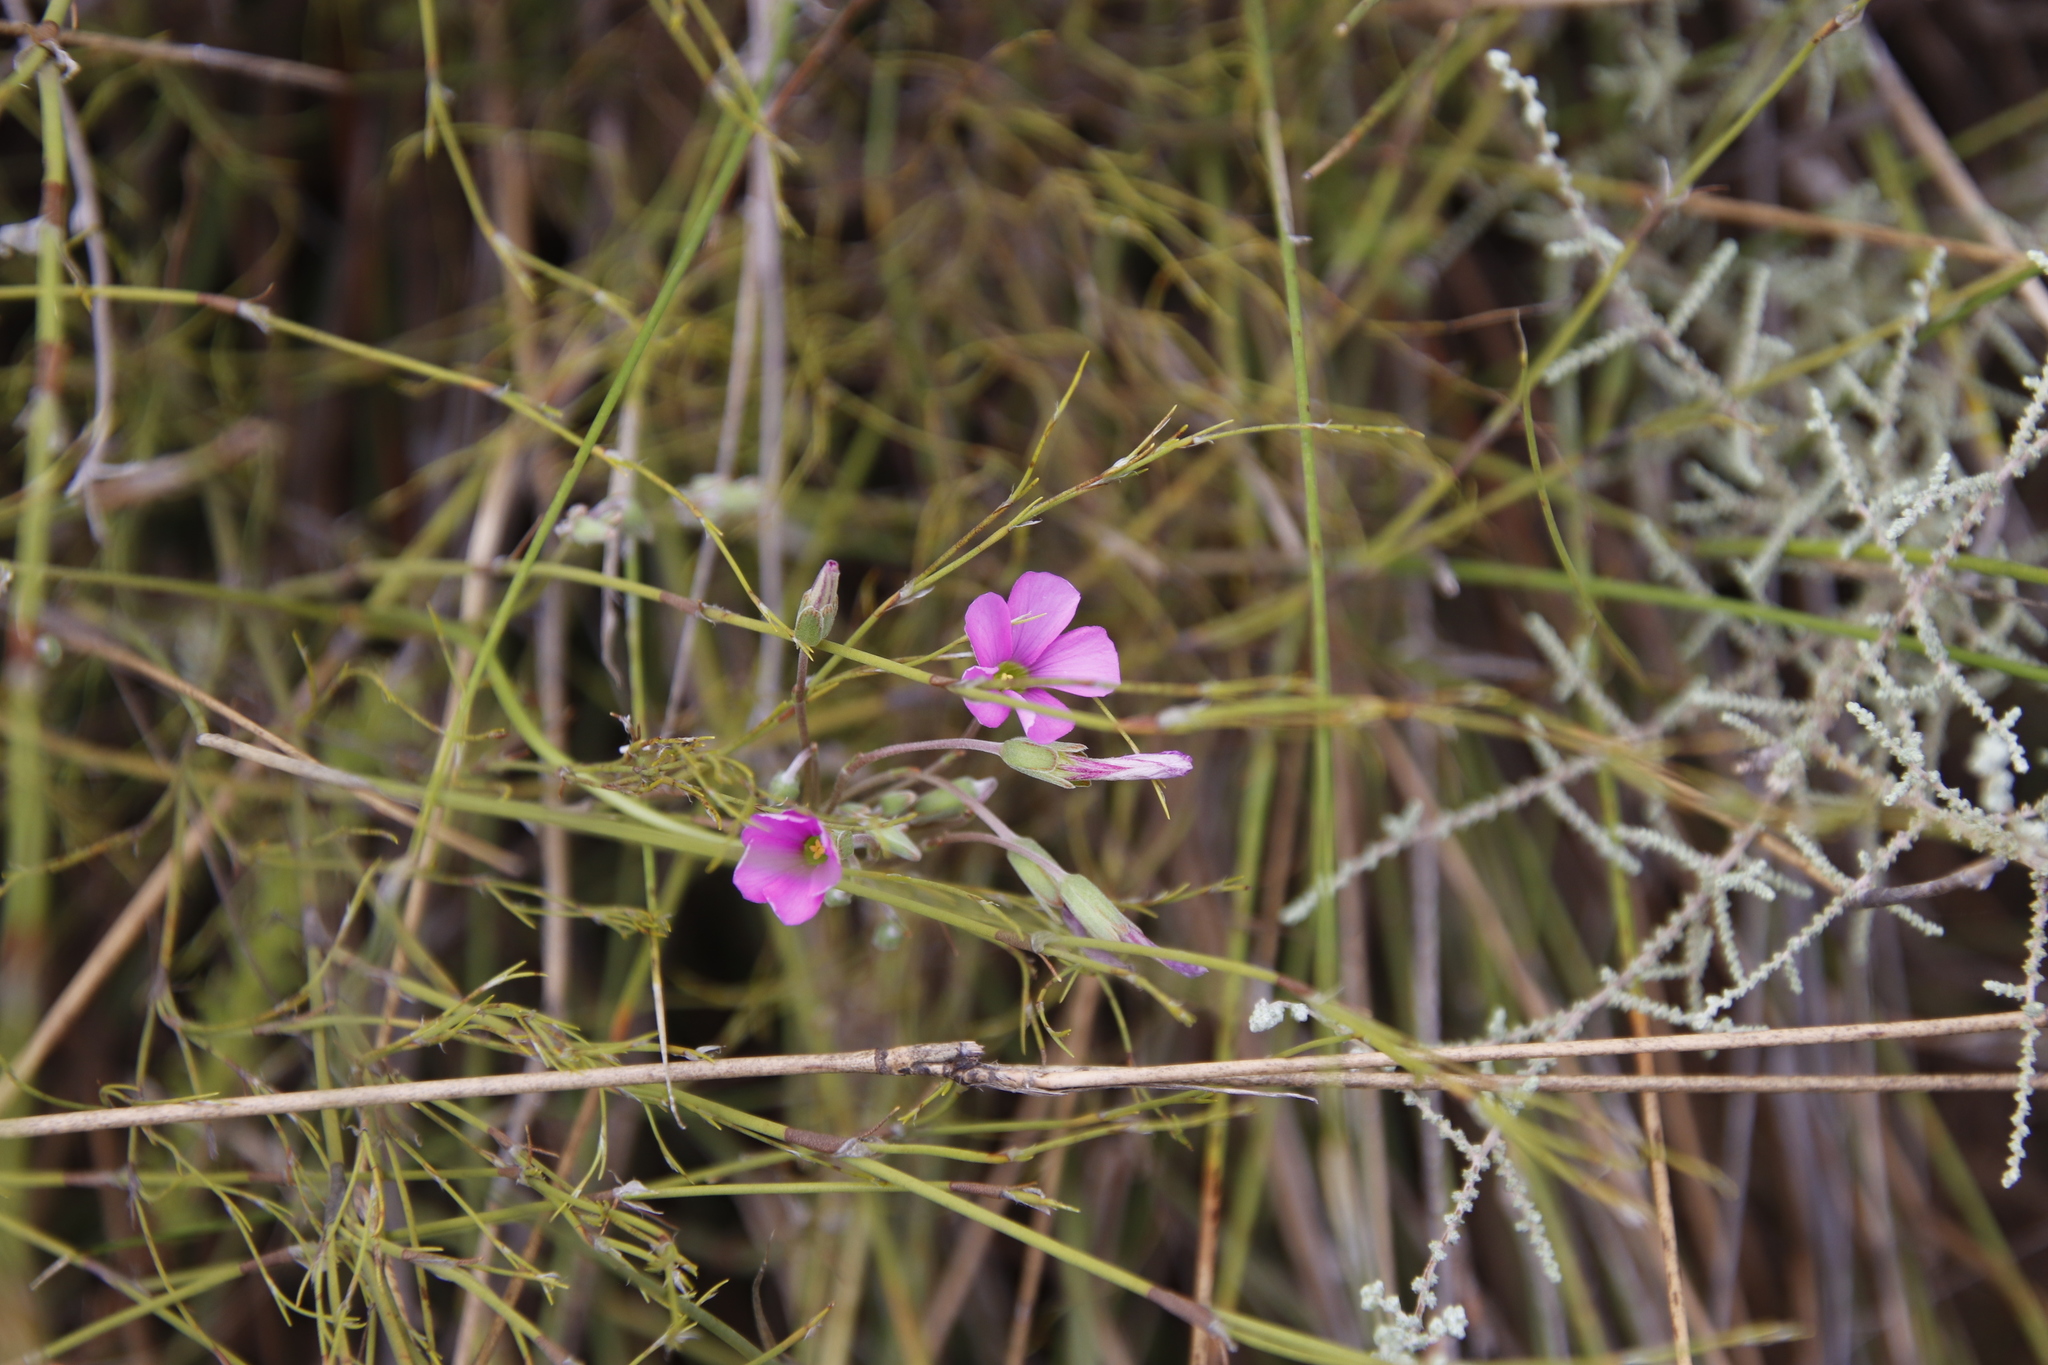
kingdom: Plantae
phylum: Tracheophyta
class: Magnoliopsida
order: Oxalidales
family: Oxalidaceae
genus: Oxalis
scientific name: Oxalis bifida
